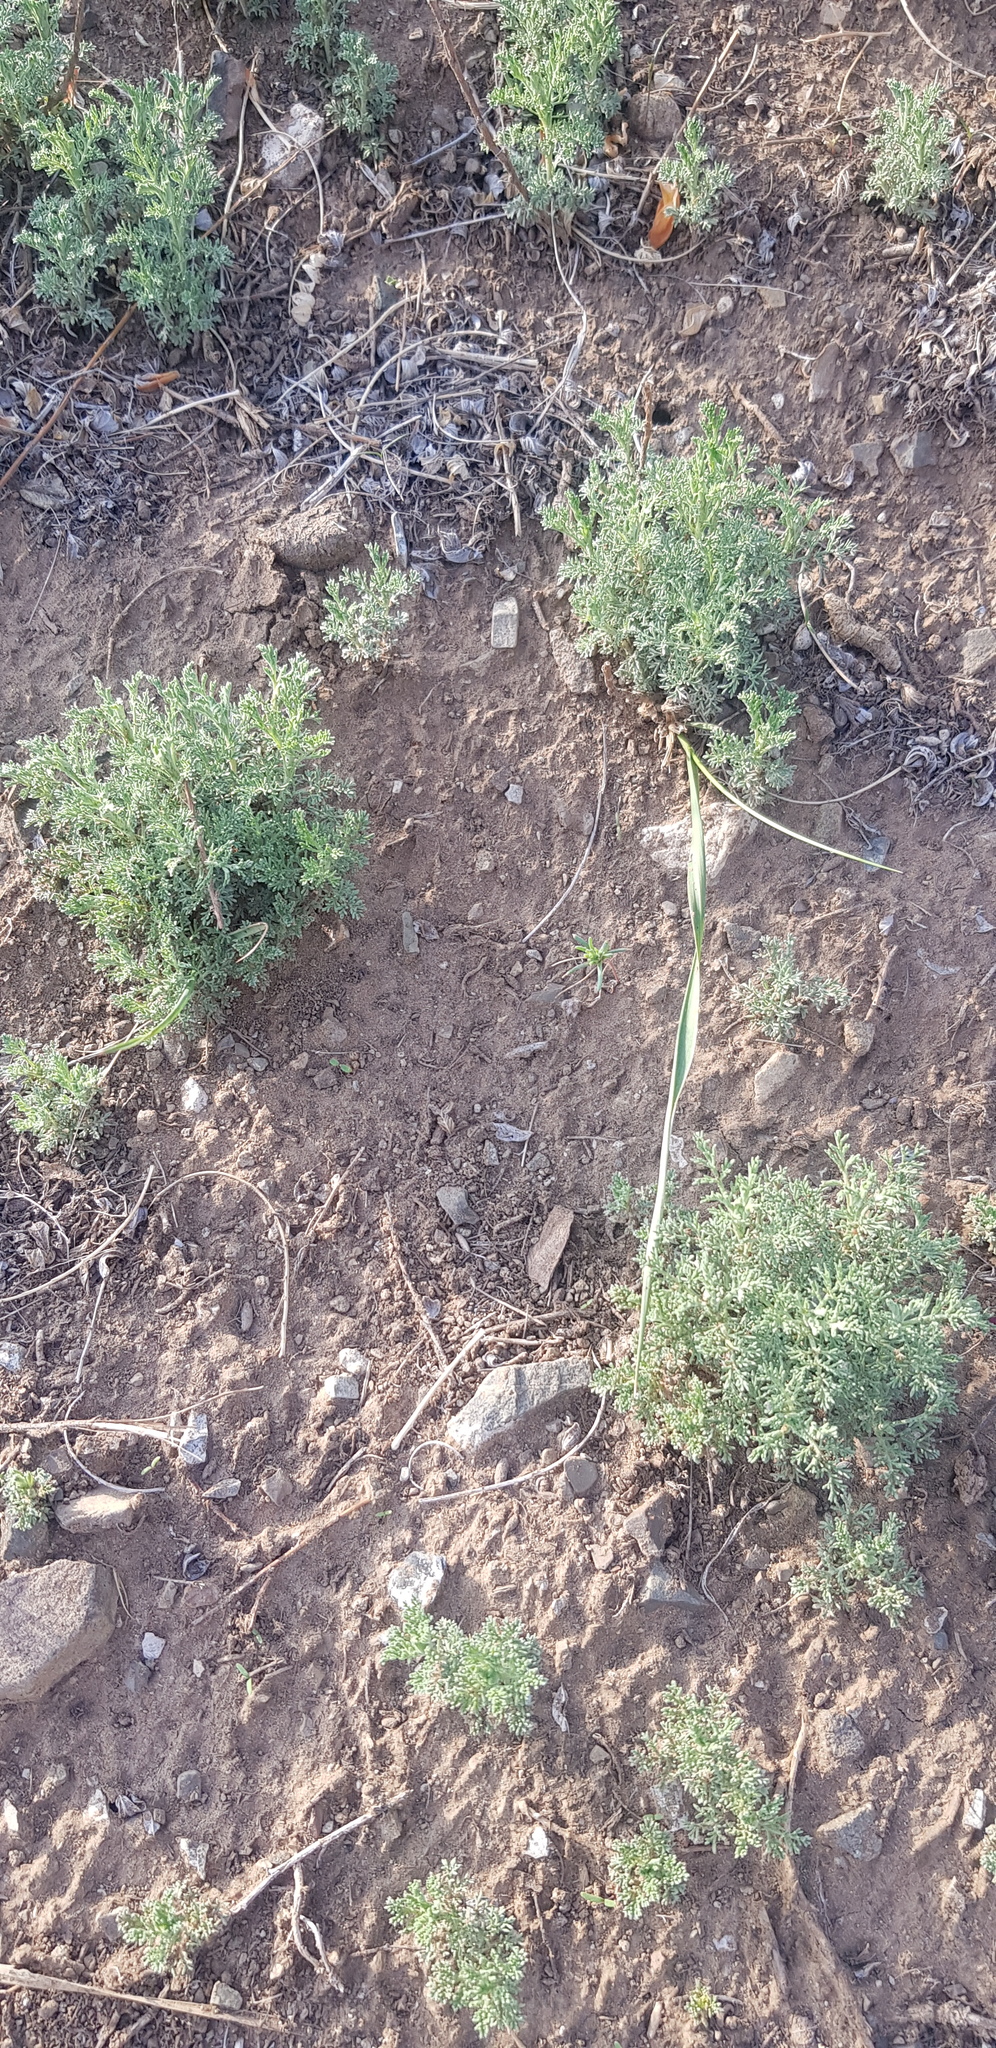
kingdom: Plantae
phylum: Tracheophyta
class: Magnoliopsida
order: Asterales
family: Asteraceae
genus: Artemisia
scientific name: Artemisia adamsii
